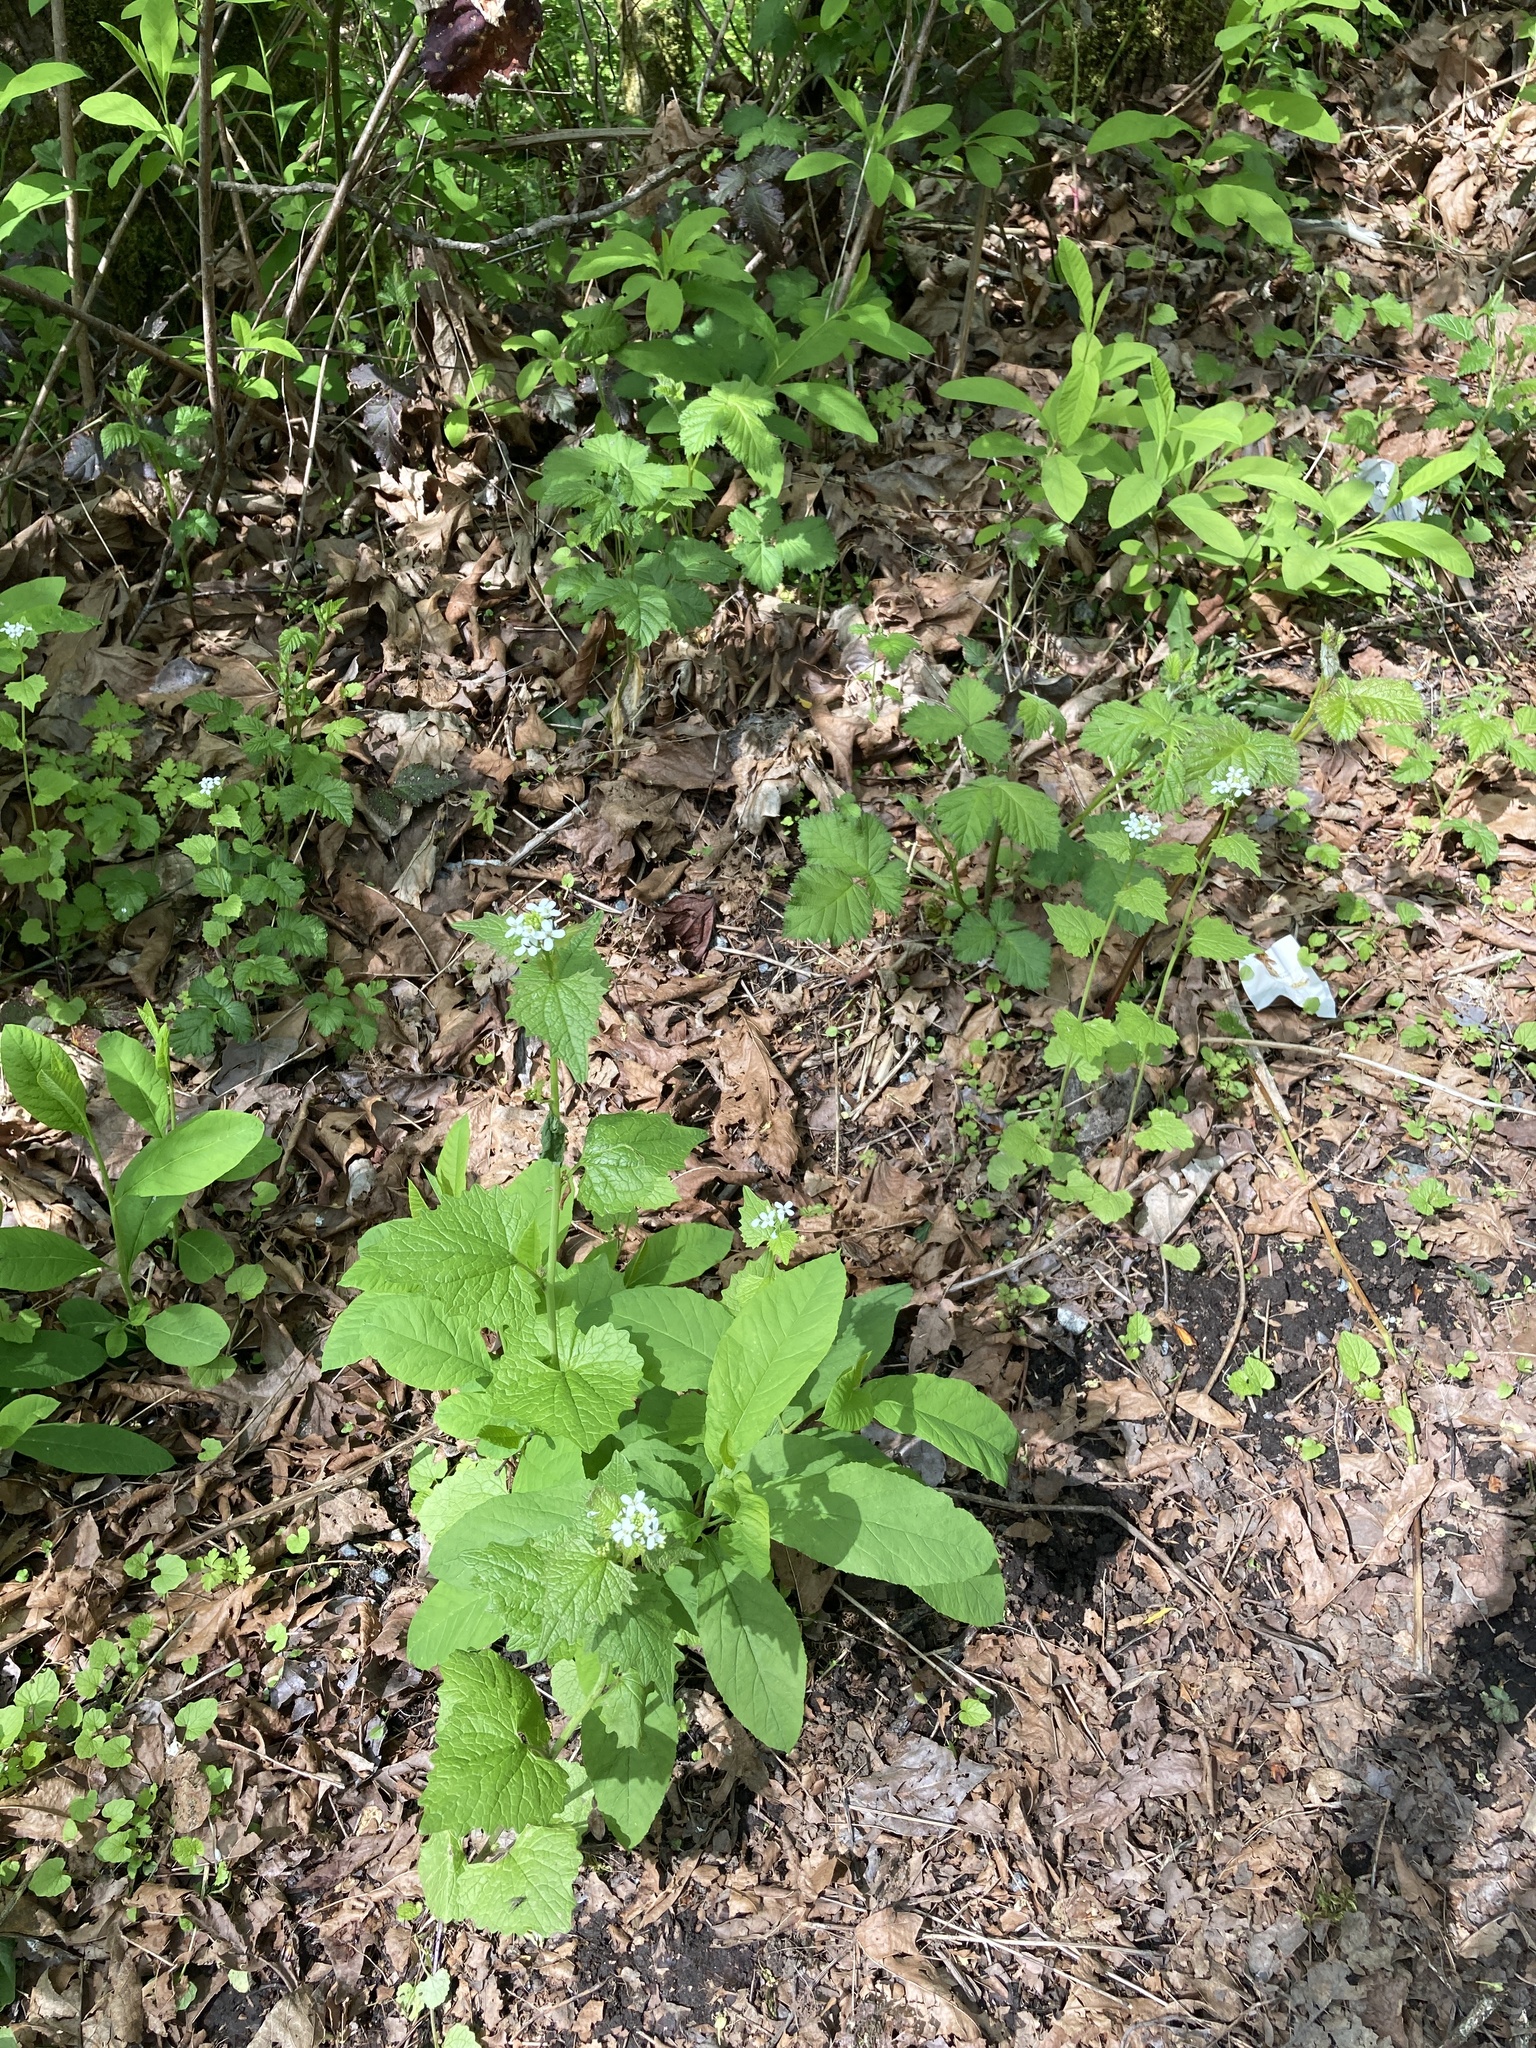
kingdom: Plantae
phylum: Tracheophyta
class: Magnoliopsida
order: Brassicales
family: Brassicaceae
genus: Alliaria
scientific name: Alliaria petiolata
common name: Garlic mustard
